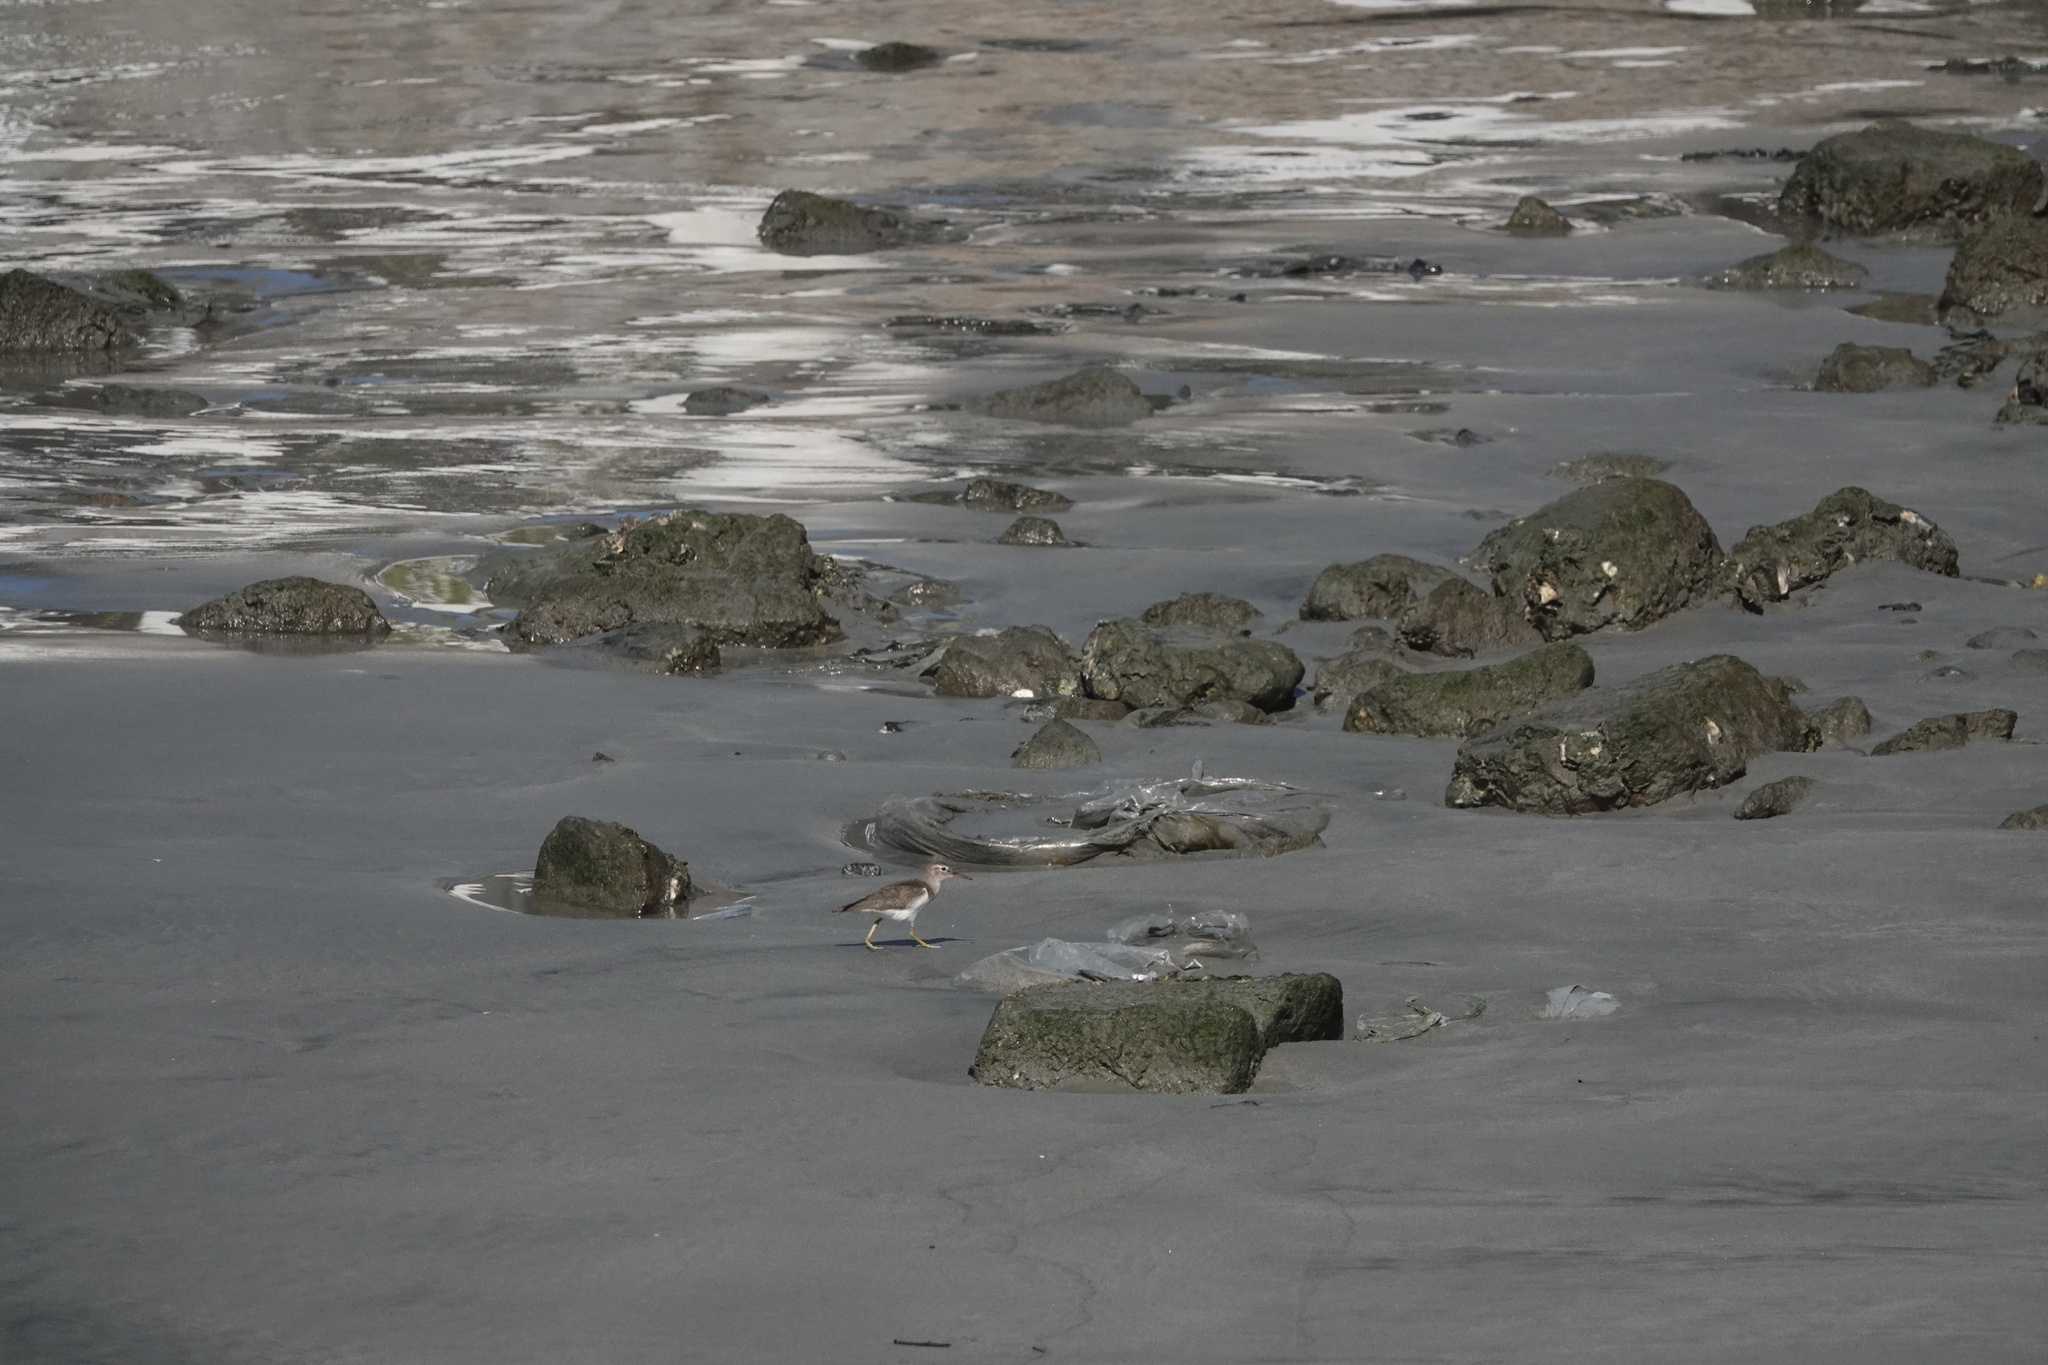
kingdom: Animalia
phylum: Chordata
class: Aves
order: Charadriiformes
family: Scolopacidae
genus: Actitis
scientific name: Actitis macularius
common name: Spotted sandpiper
